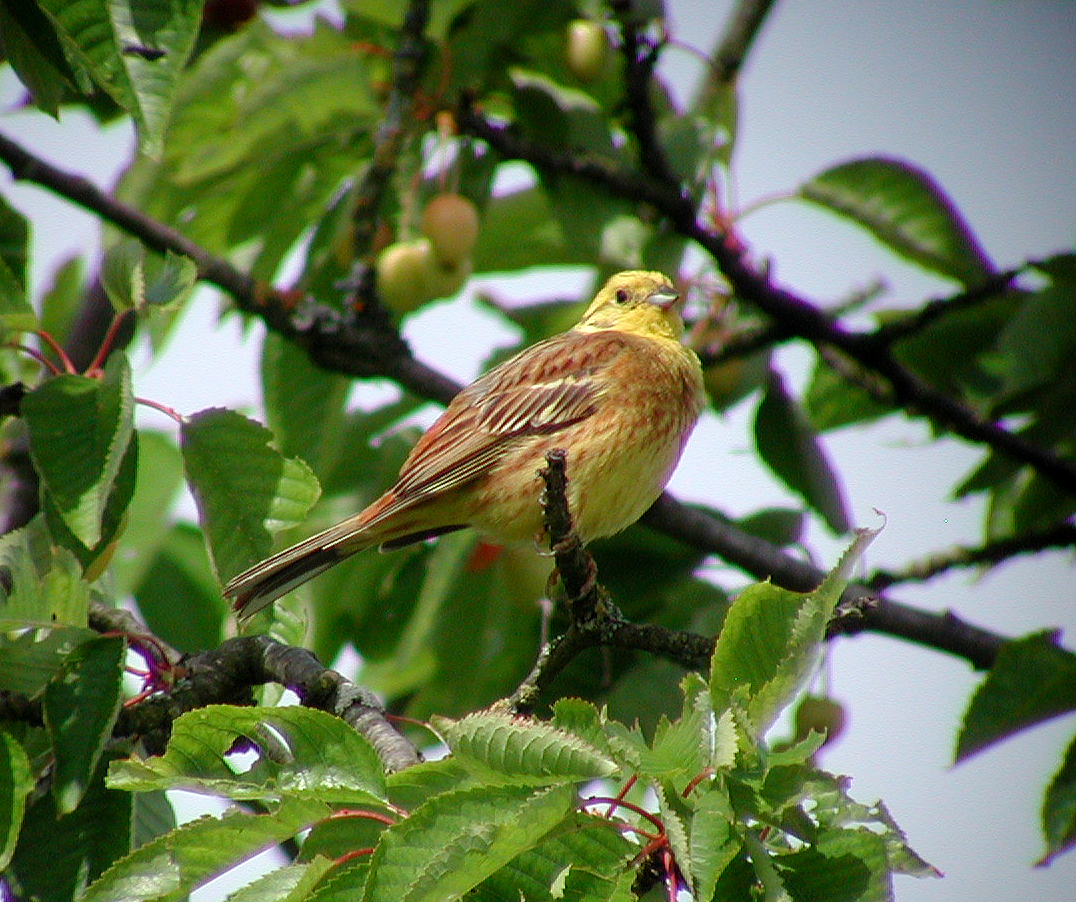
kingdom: Animalia
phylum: Chordata
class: Aves
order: Passeriformes
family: Emberizidae
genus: Emberiza
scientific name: Emberiza citrinella
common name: Yellowhammer
